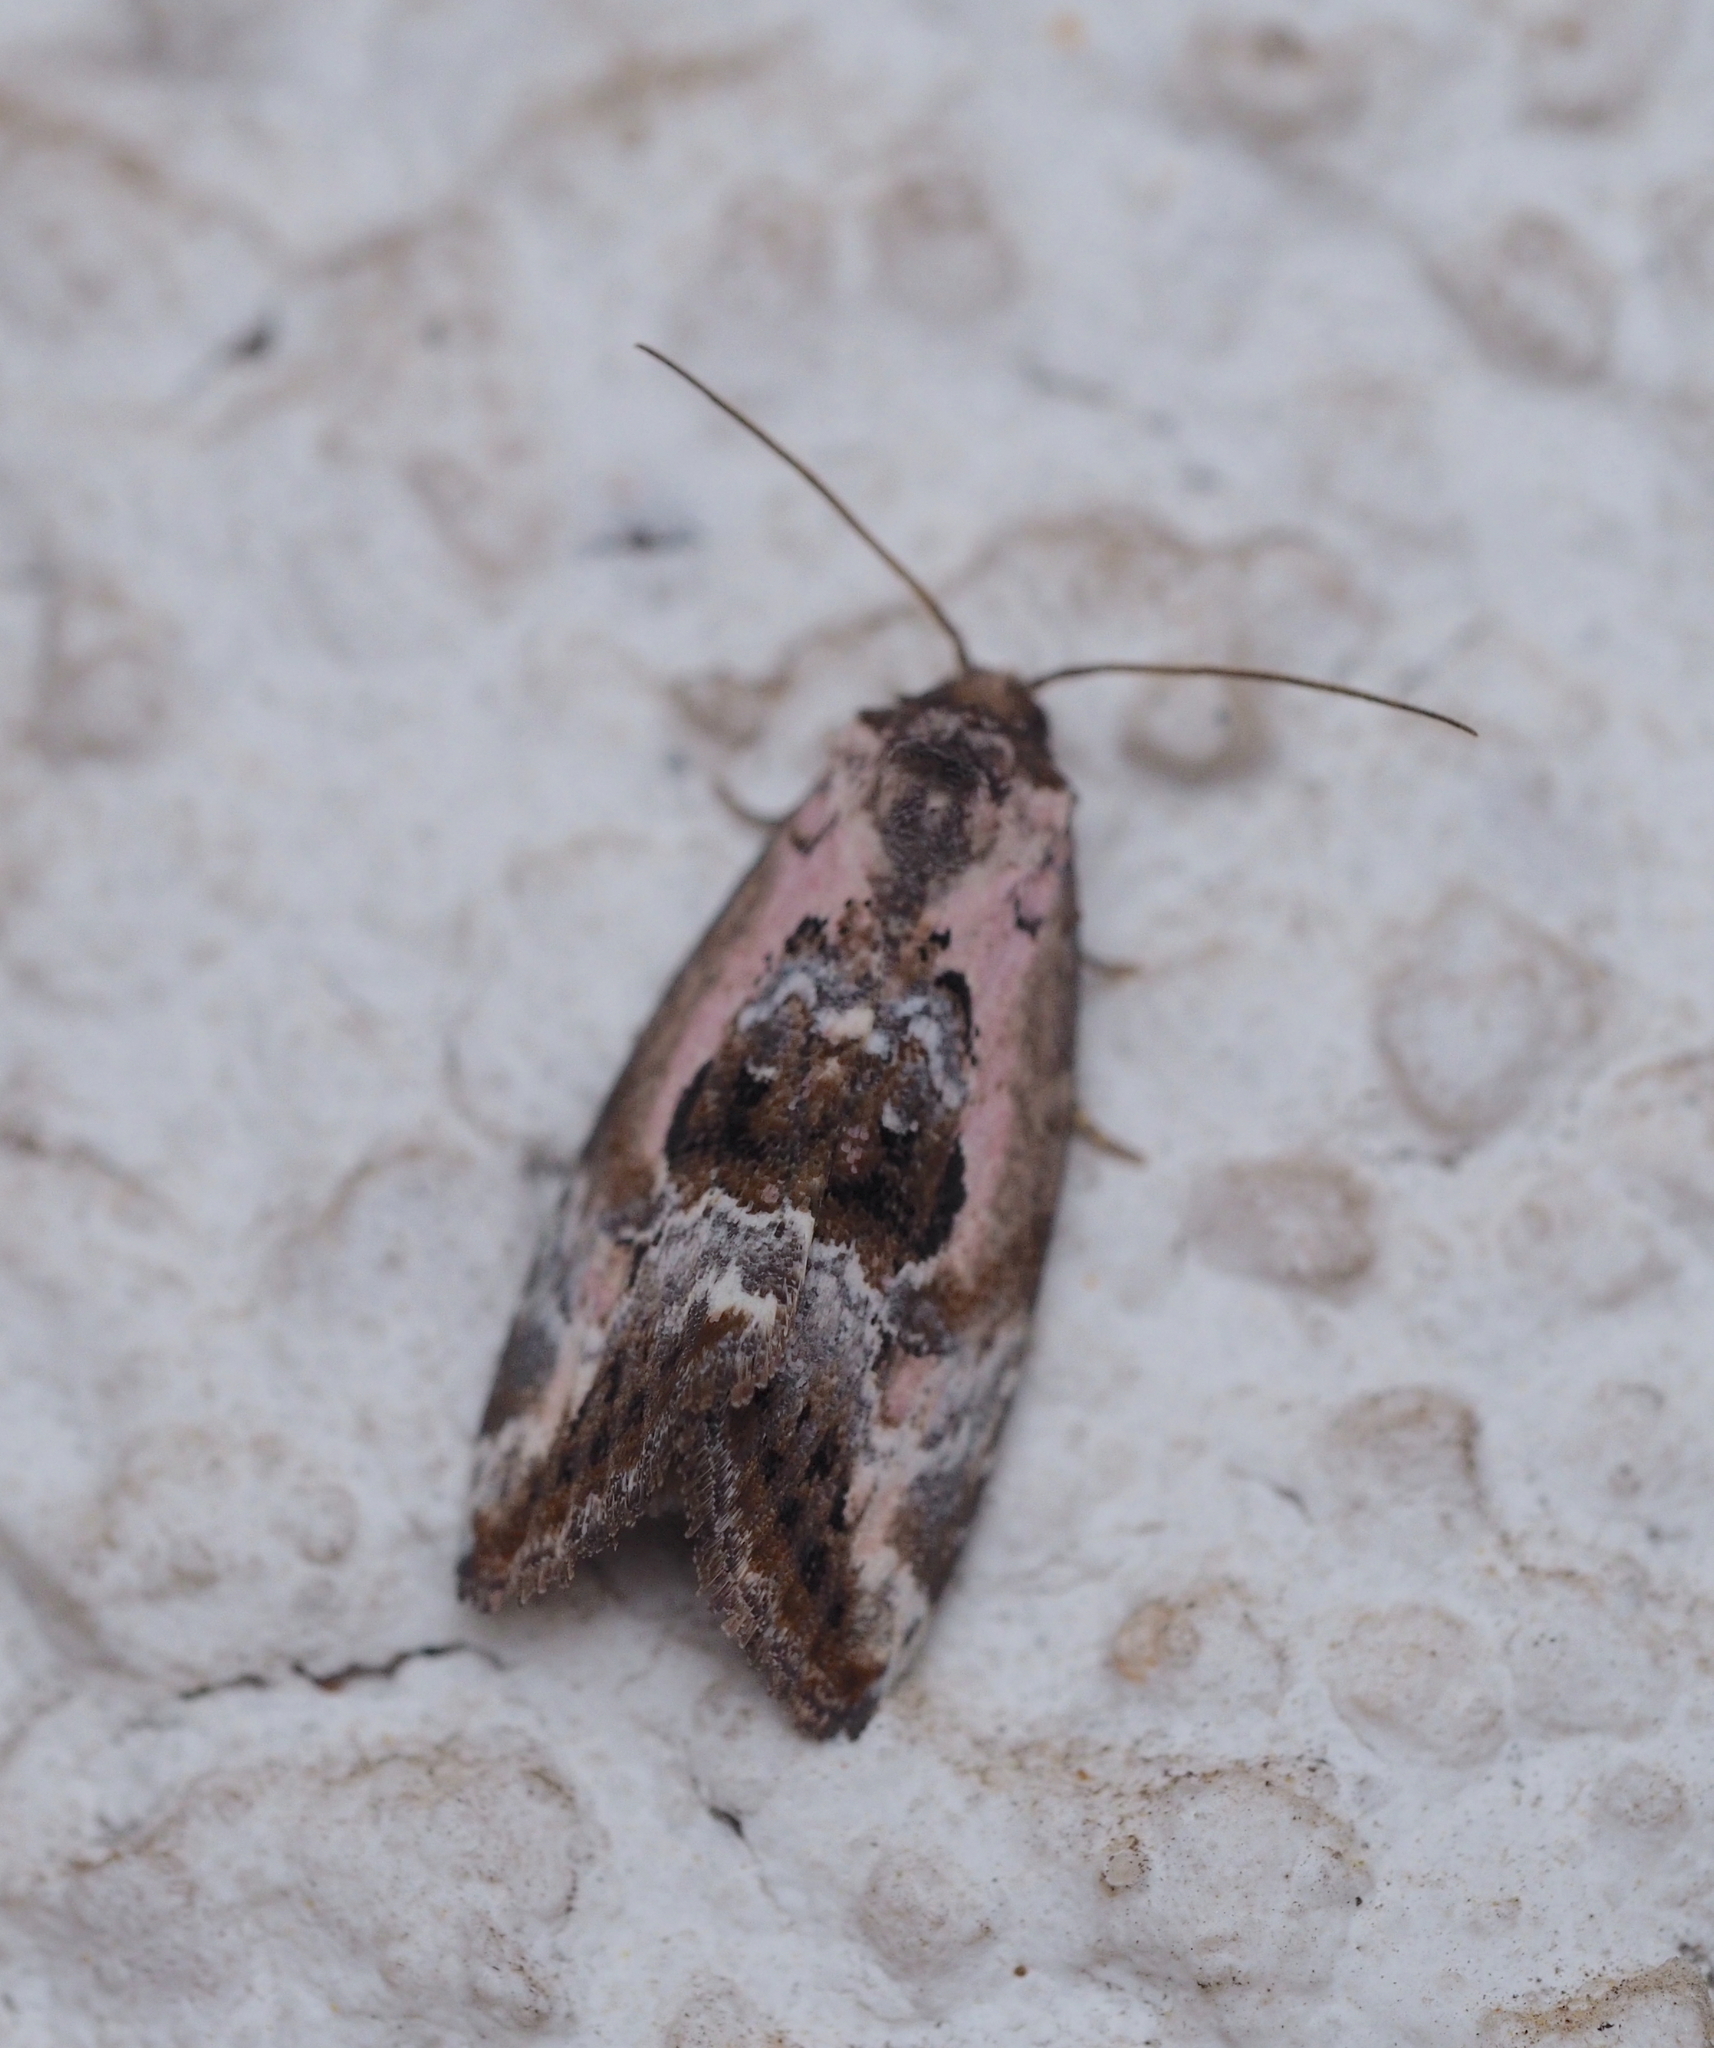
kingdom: Animalia
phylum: Arthropoda
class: Insecta
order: Lepidoptera
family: Noctuidae
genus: Elaphria
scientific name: Elaphria venustula
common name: Rosy marbled
